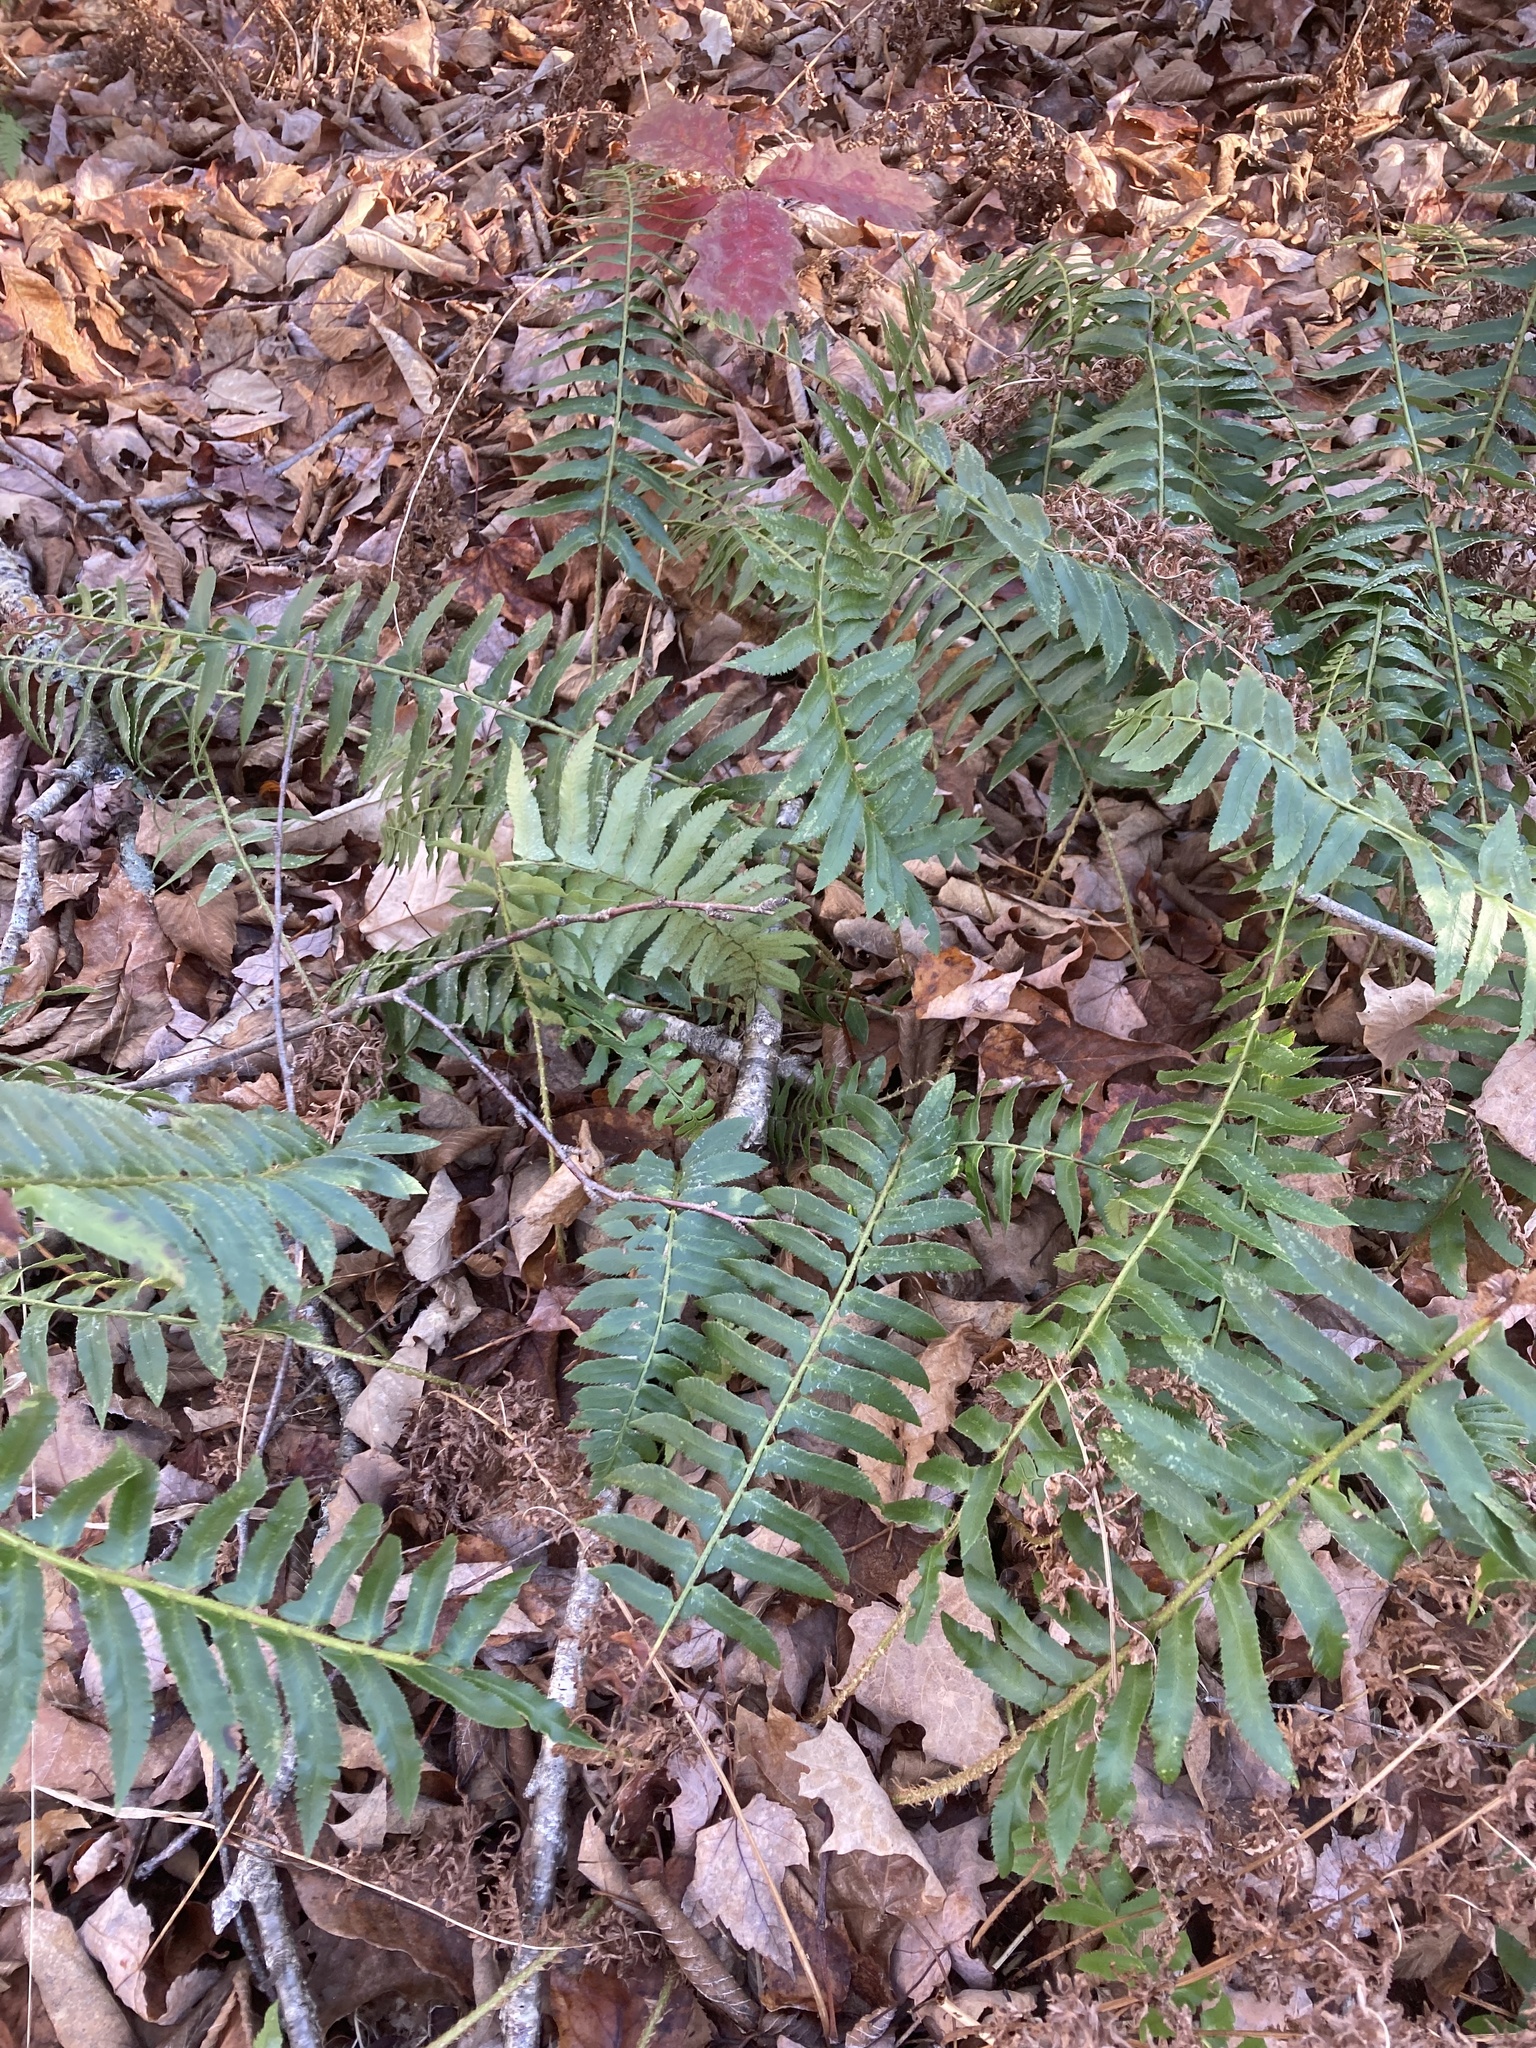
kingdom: Plantae
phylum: Tracheophyta
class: Polypodiopsida
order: Polypodiales
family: Dryopteridaceae
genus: Polystichum
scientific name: Polystichum acrostichoides
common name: Christmas fern
